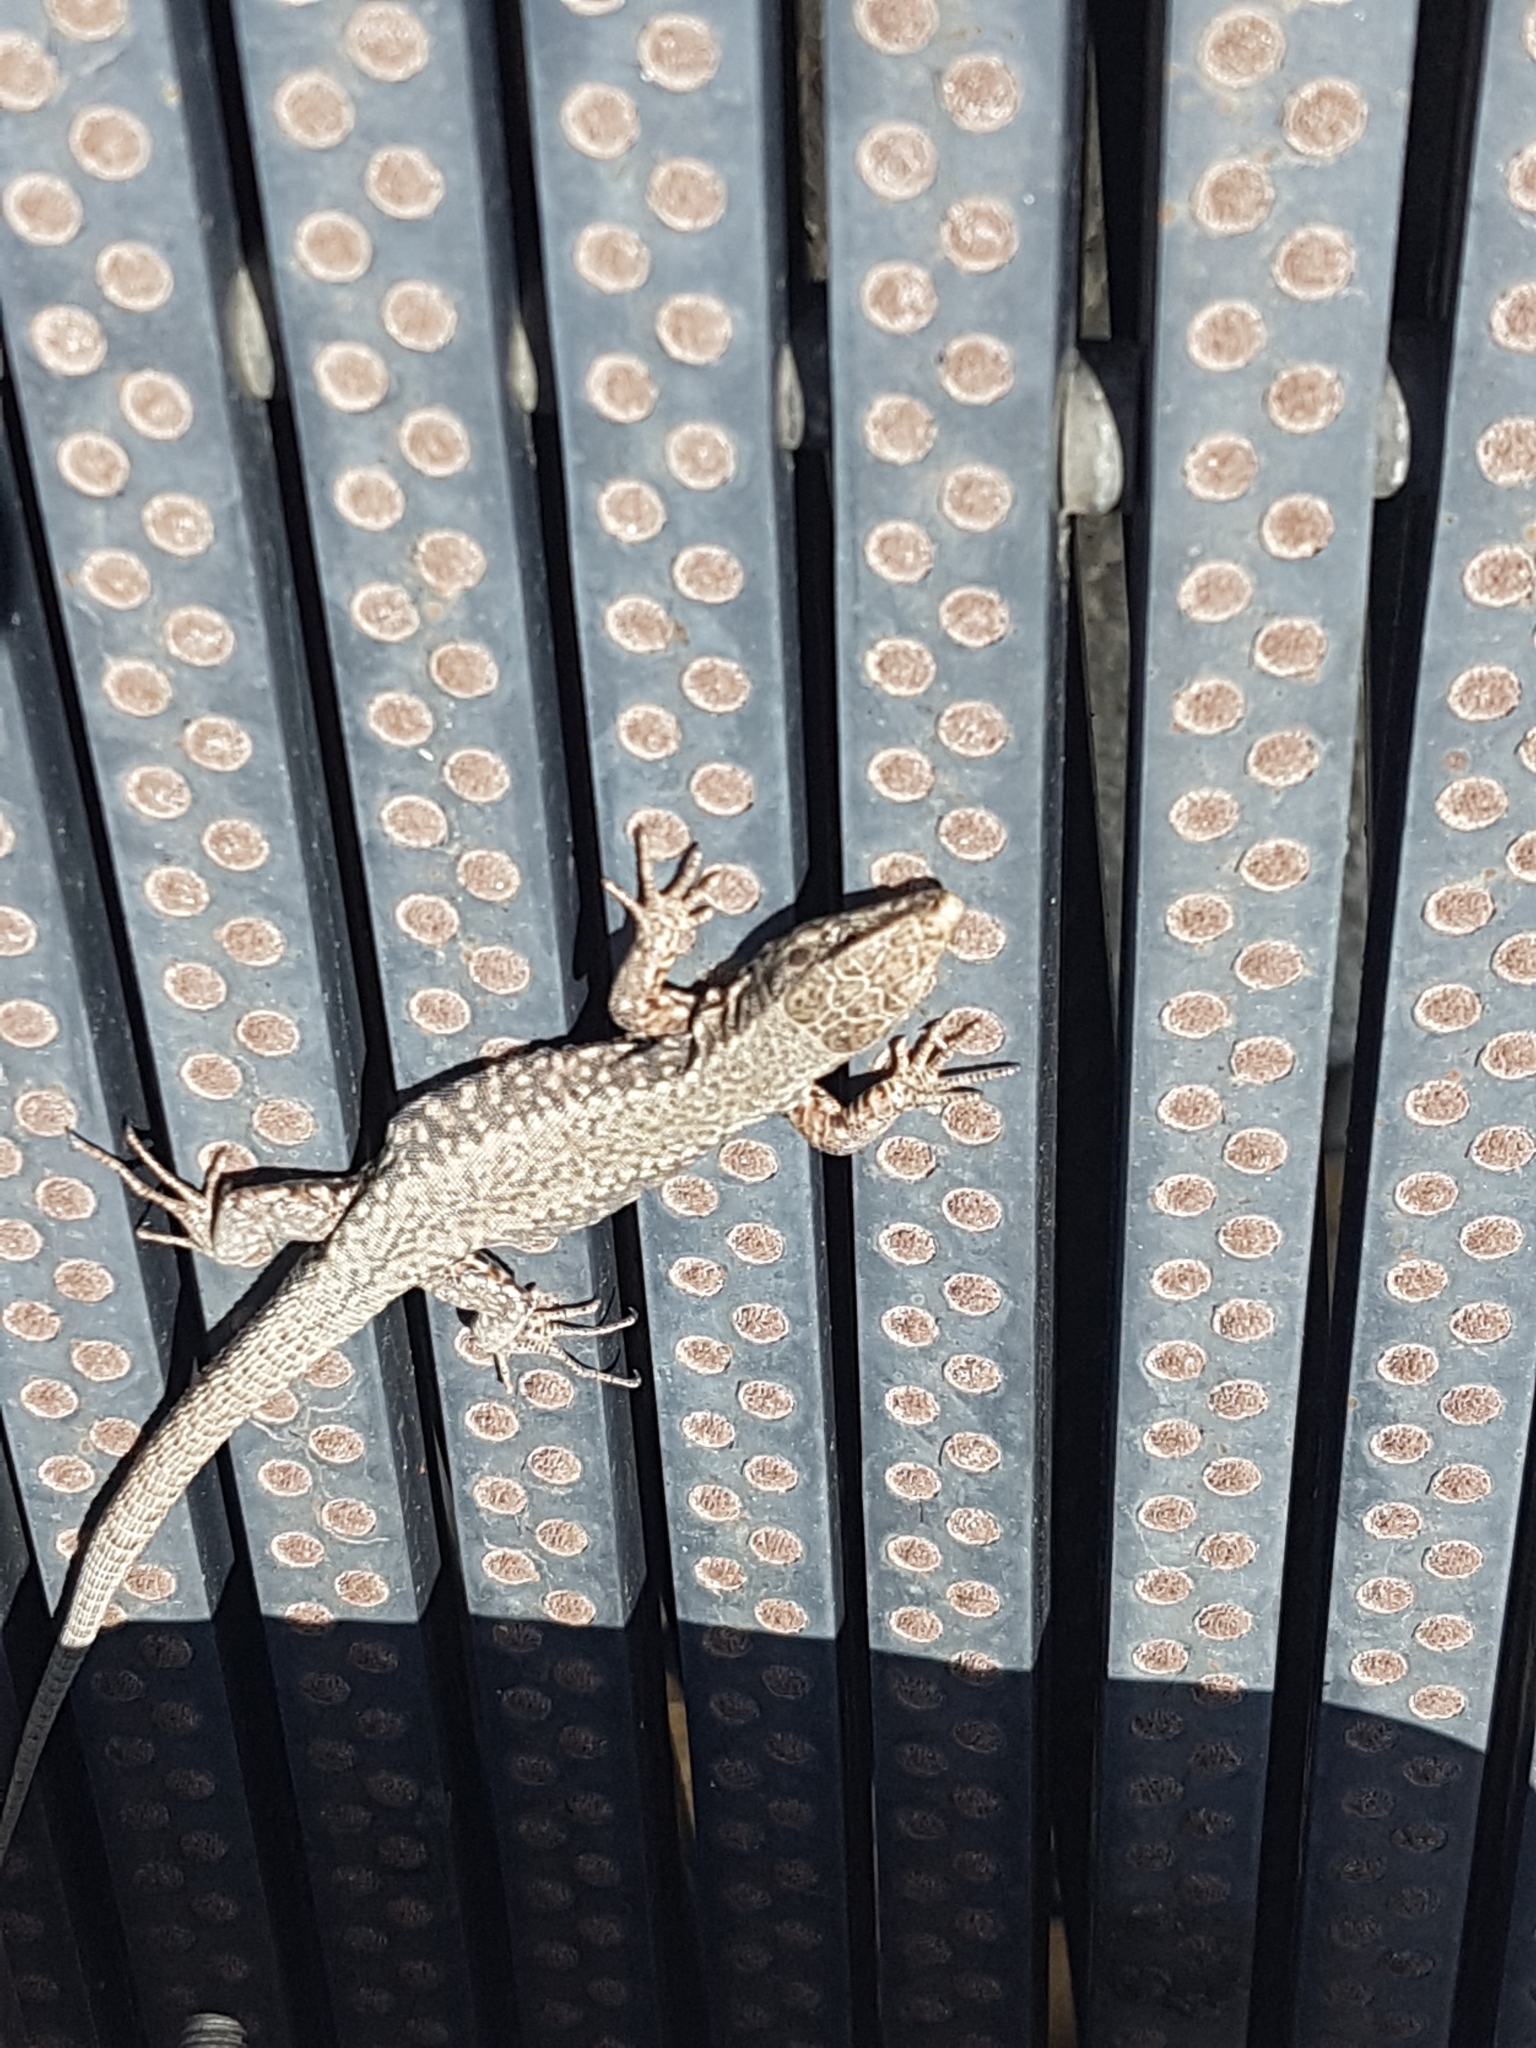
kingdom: Animalia
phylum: Chordata
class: Squamata
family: Lacertidae
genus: Podarcis
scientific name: Podarcis muralis
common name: Common wall lizard
